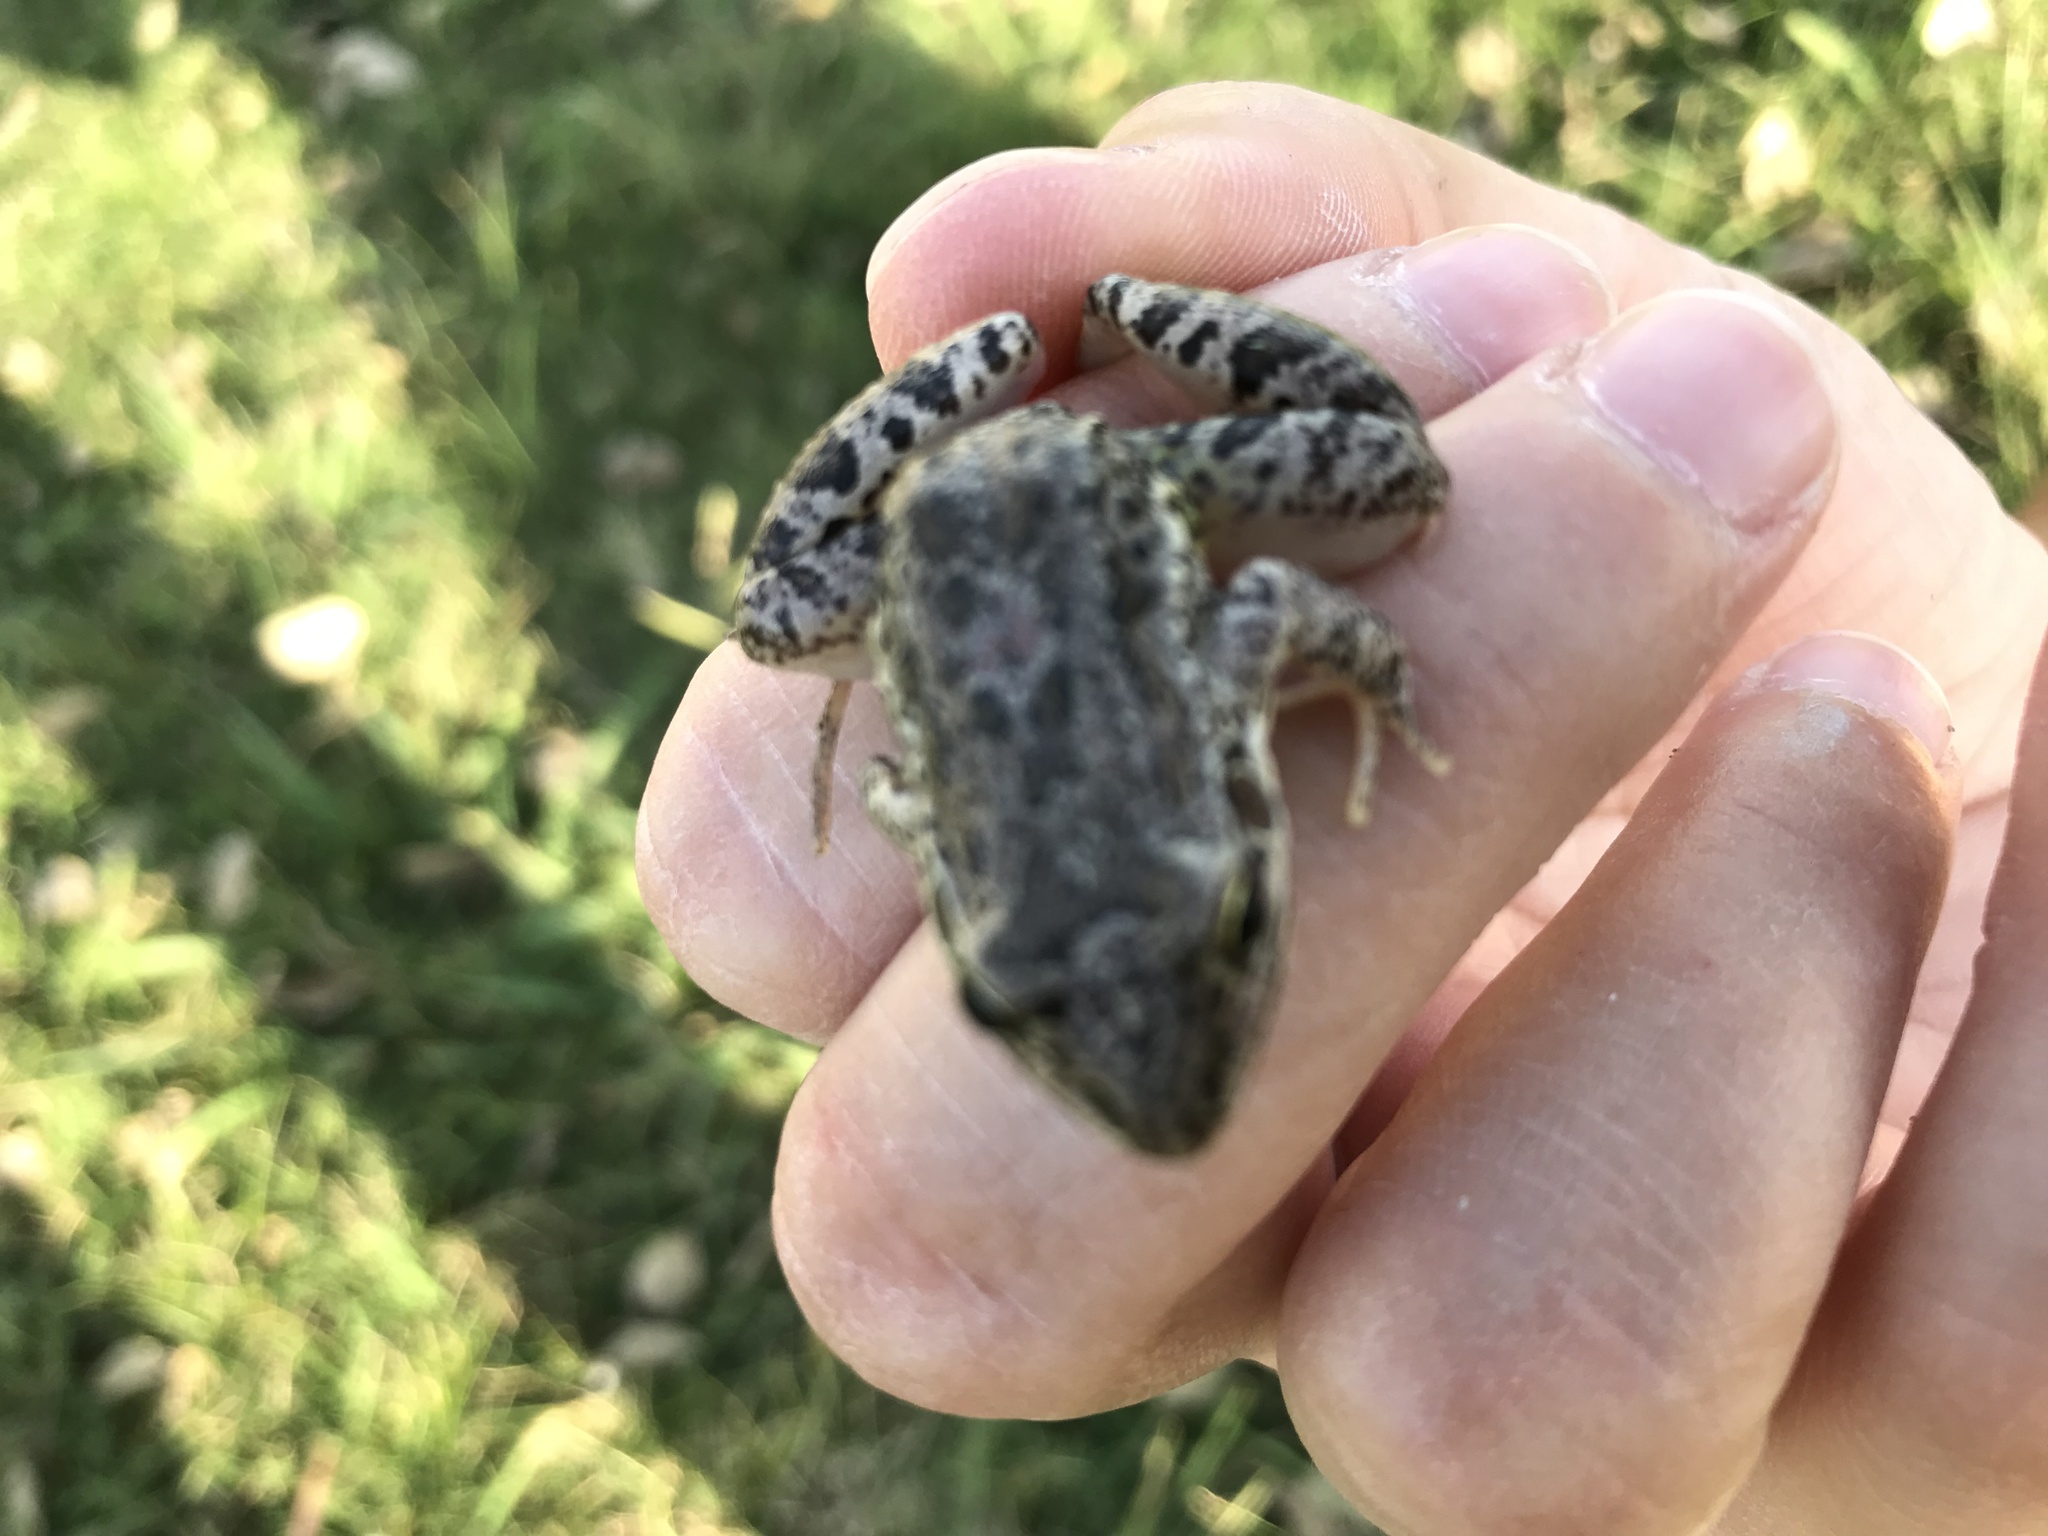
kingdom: Animalia
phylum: Chordata
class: Amphibia
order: Anura
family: Leptodactylidae
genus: Leptodactylus
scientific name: Leptodactylus latinasus
